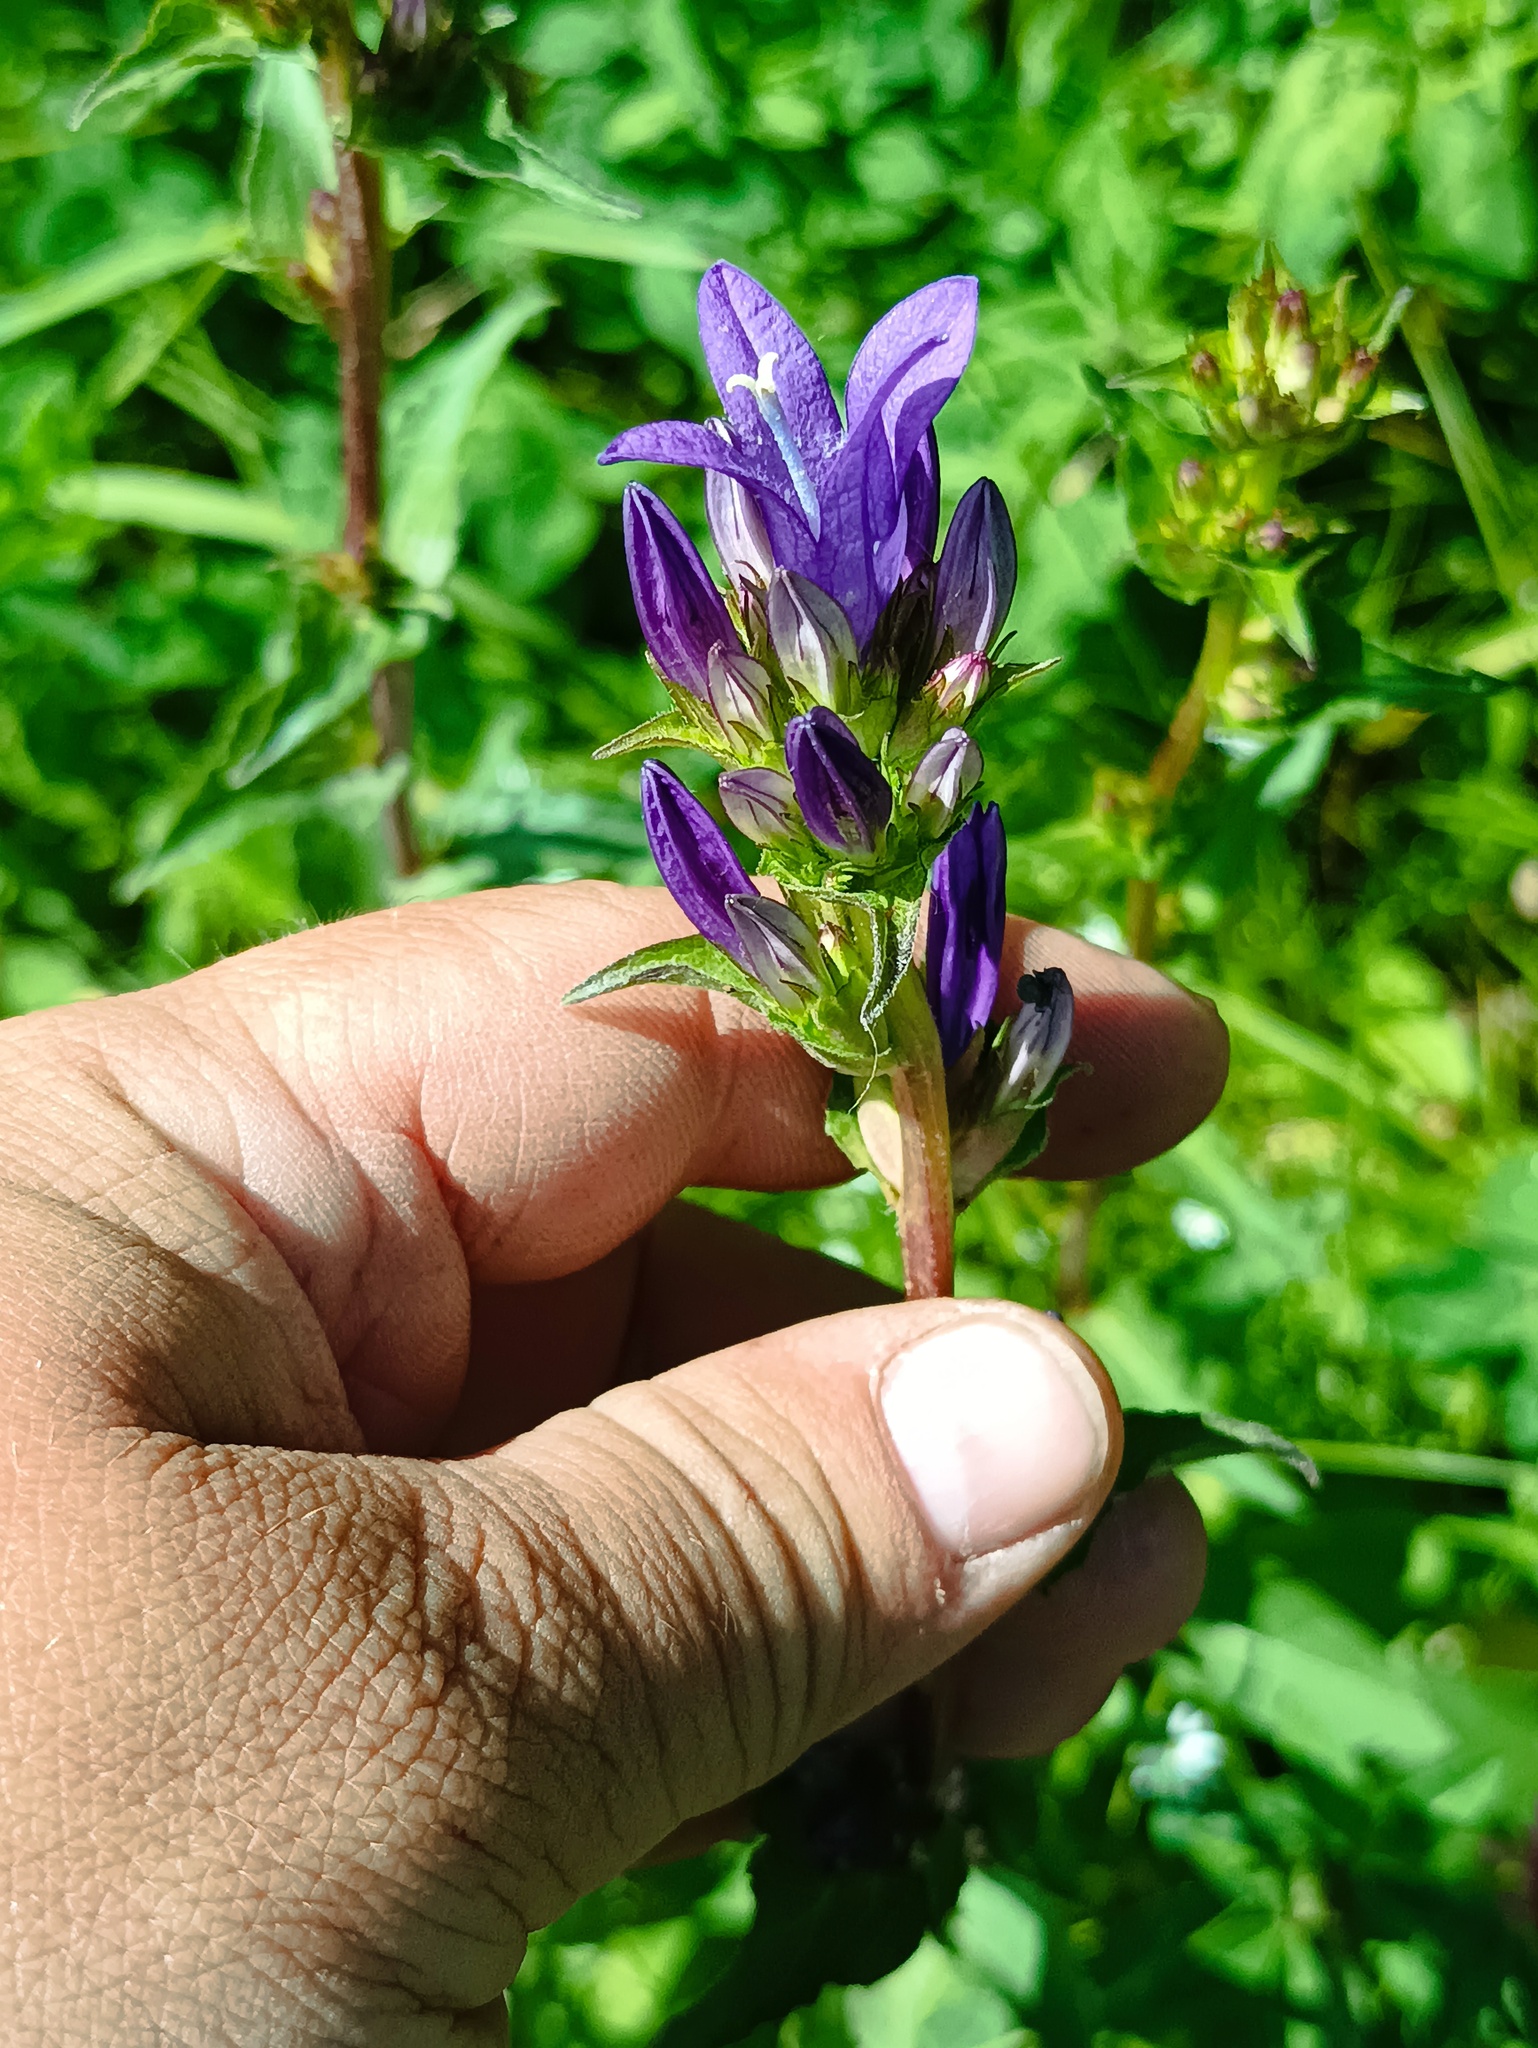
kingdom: Plantae
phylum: Tracheophyta
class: Magnoliopsida
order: Asterales
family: Campanulaceae
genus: Campanula
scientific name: Campanula glomerata
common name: Clustered bellflower
